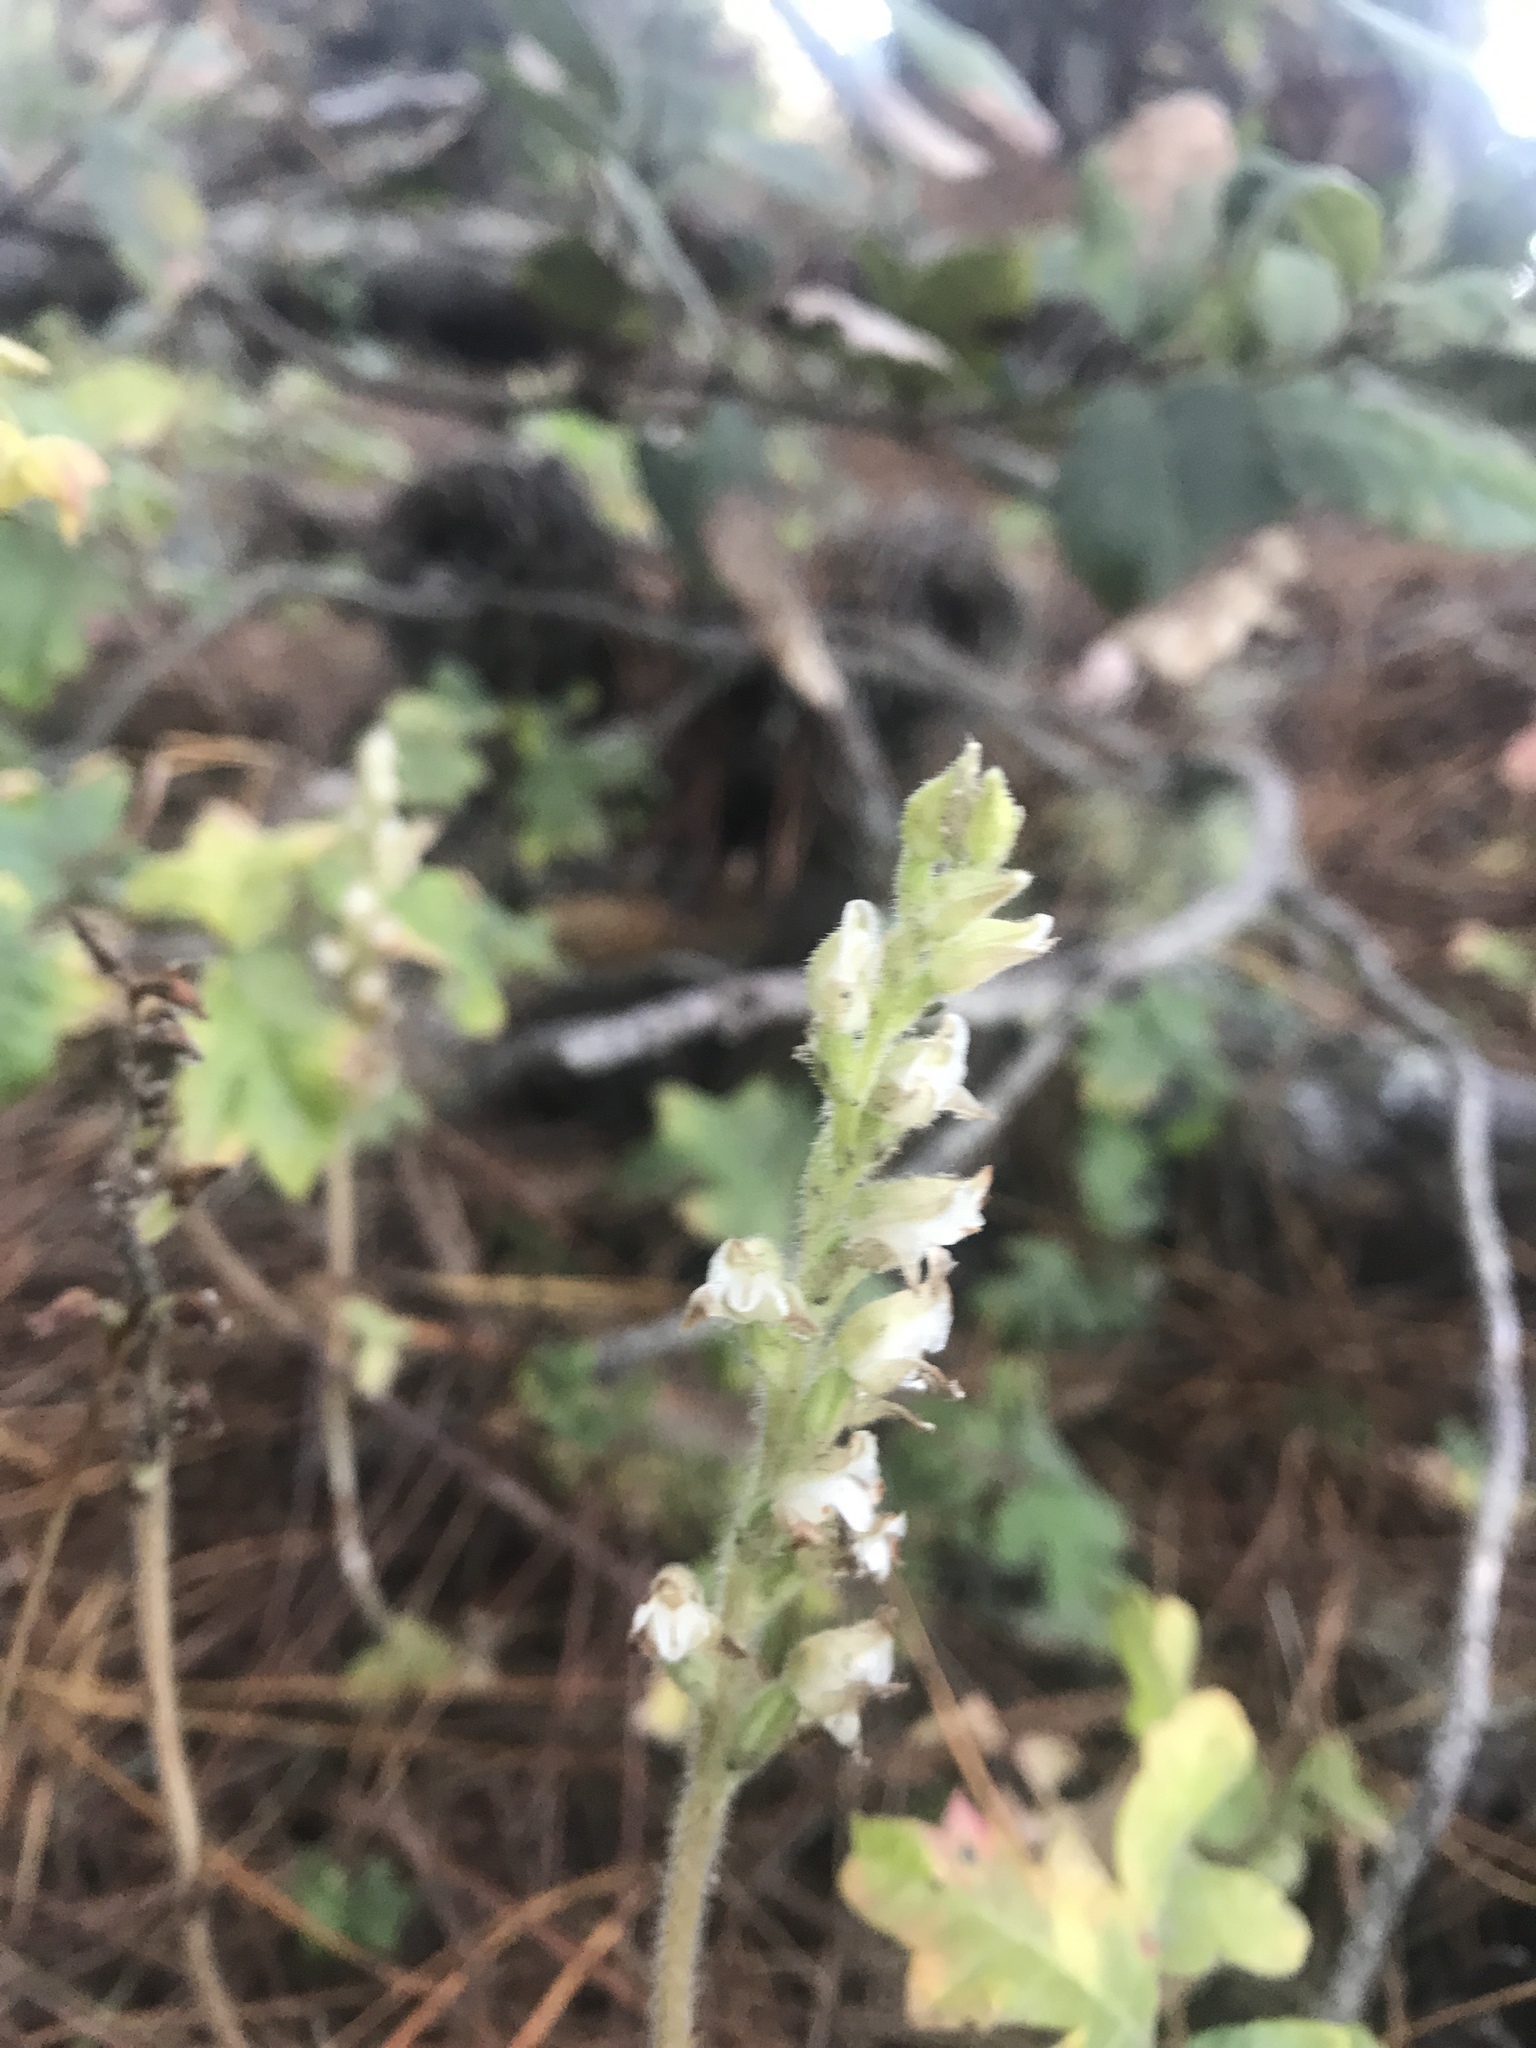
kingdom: Plantae
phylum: Tracheophyta
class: Liliopsida
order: Asparagales
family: Orchidaceae
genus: Goodyera
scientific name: Goodyera oblongifolia
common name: Giant rattlesnake-plantain
